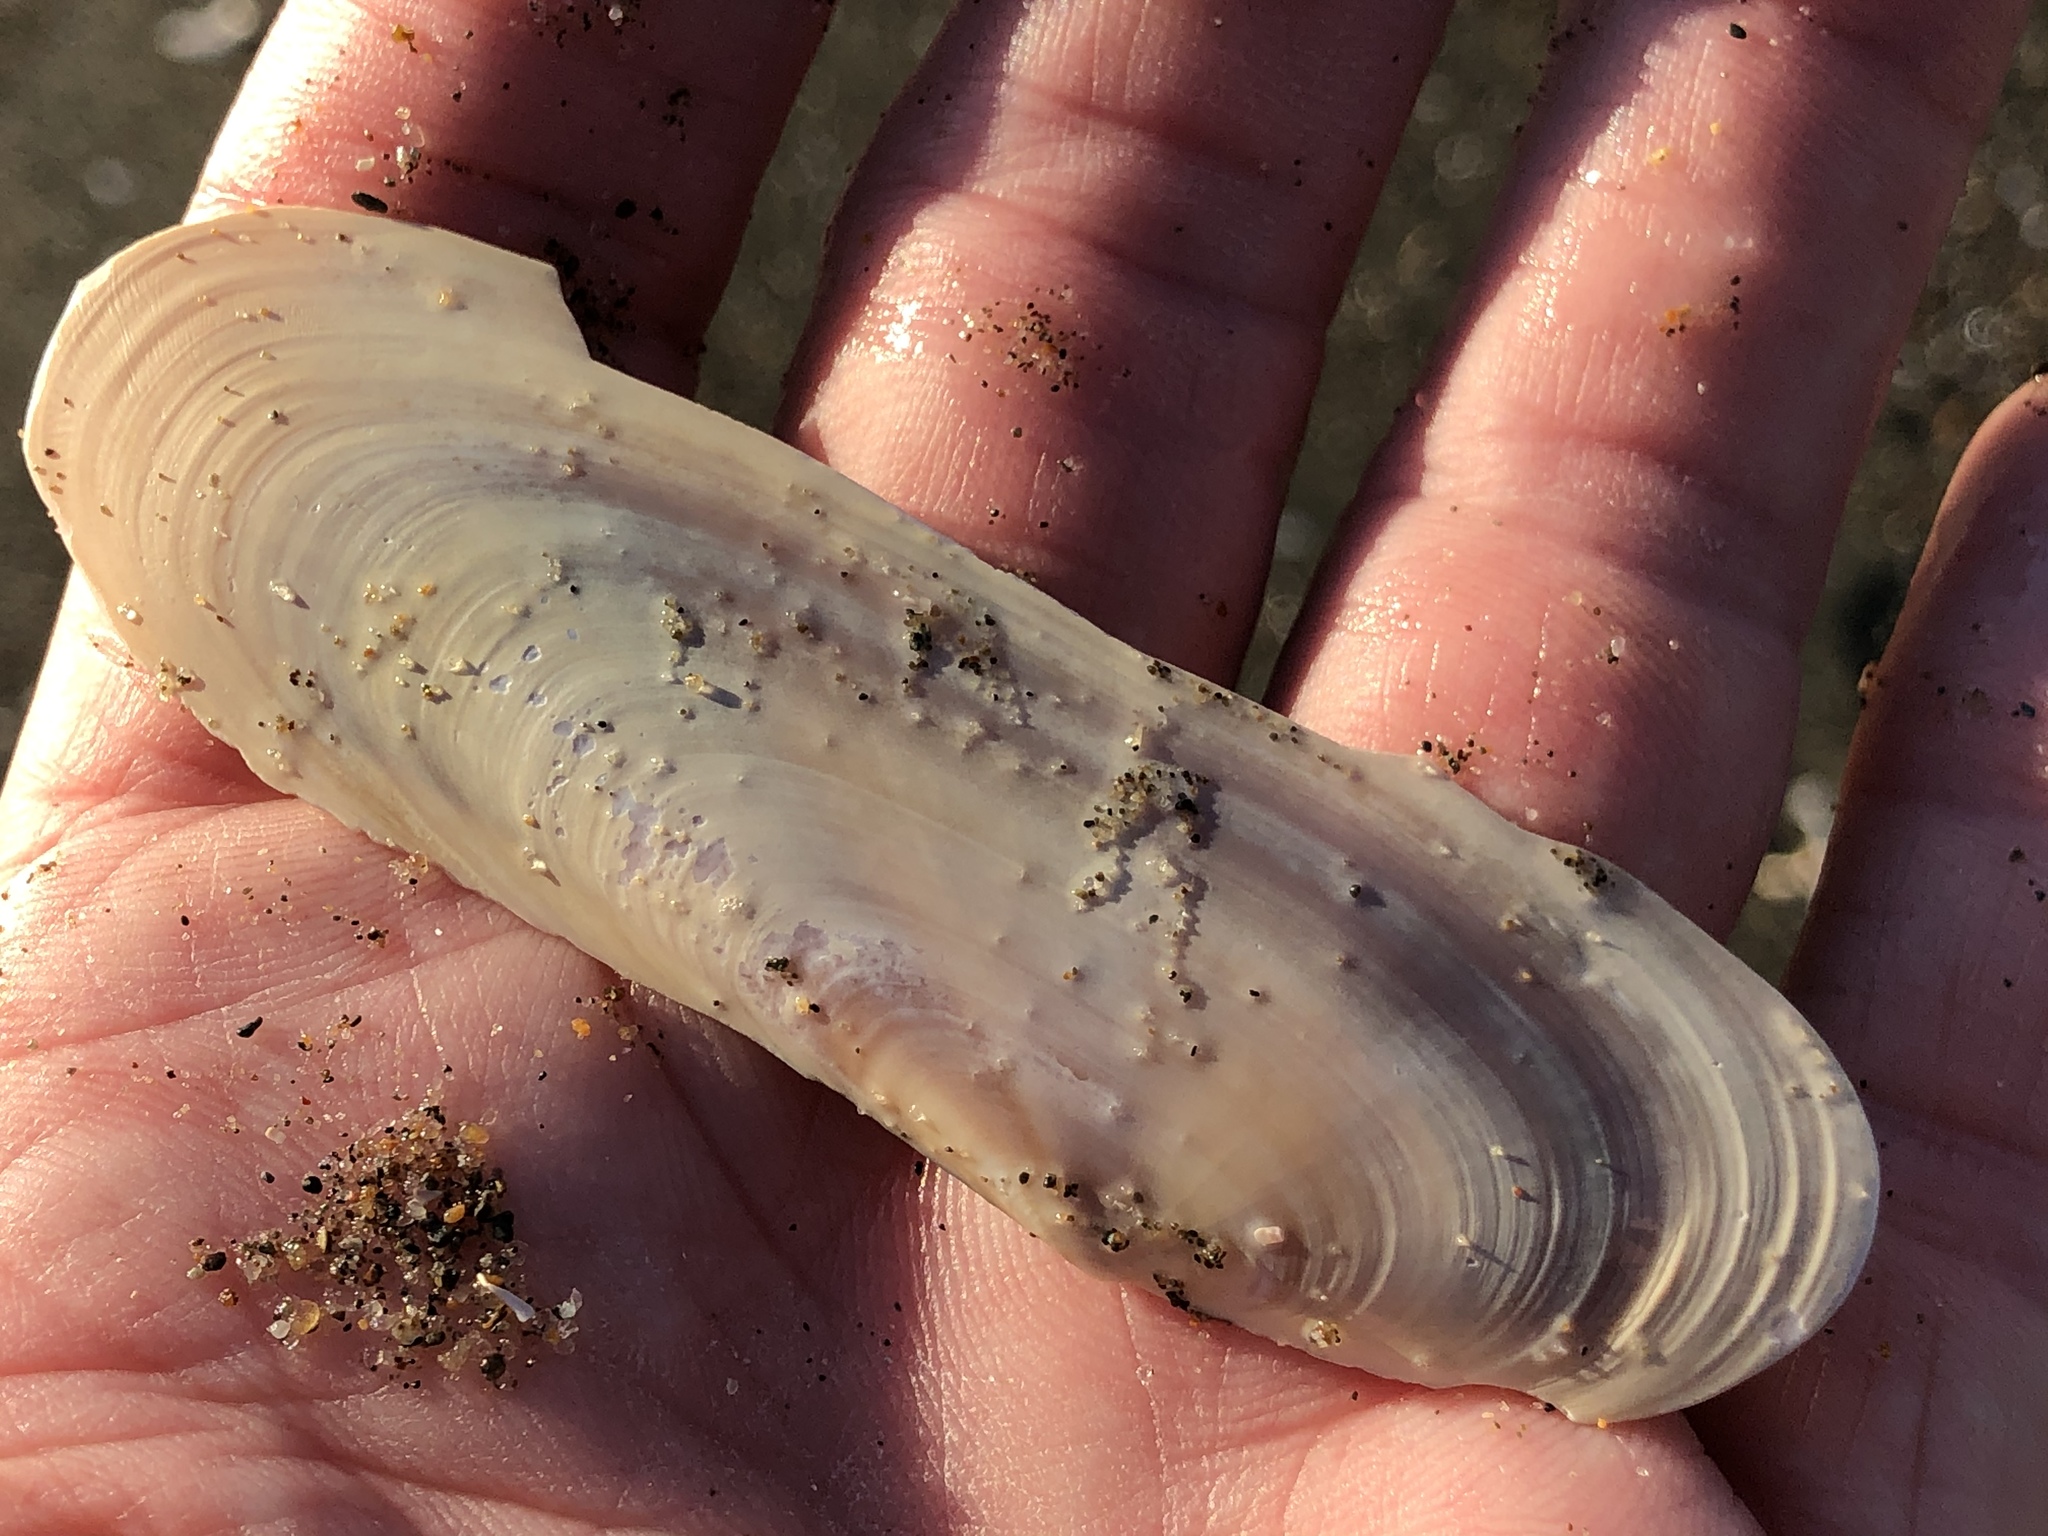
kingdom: Animalia
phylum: Mollusca
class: Bivalvia
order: Adapedonta
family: Pharidae
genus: Siliqua
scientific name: Siliqua patula
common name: Pacific razor clam
